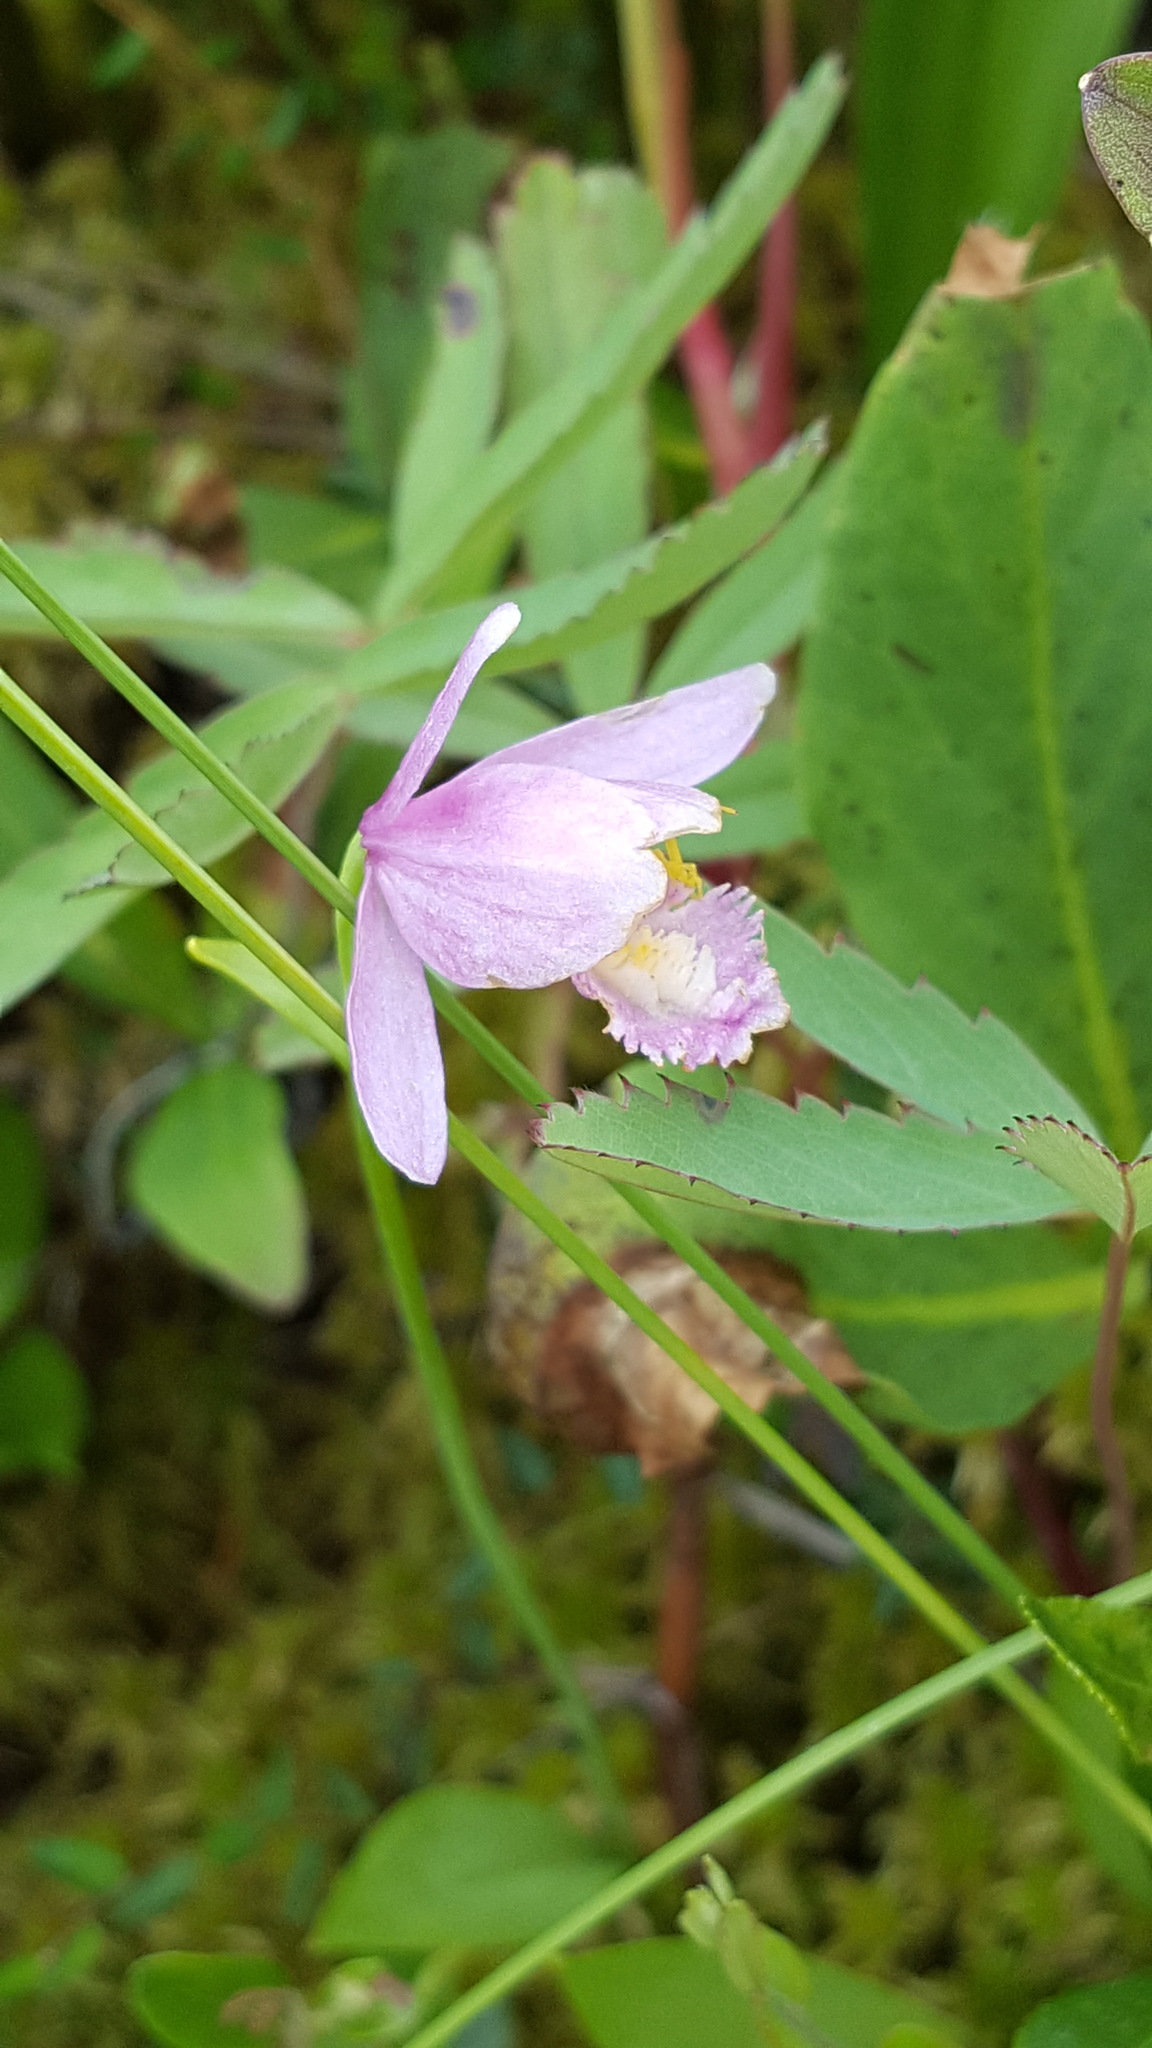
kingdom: Plantae
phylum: Tracheophyta
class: Liliopsida
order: Asparagales
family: Orchidaceae
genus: Pogonia
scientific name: Pogonia ophioglossoides
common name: Rose pogonia
